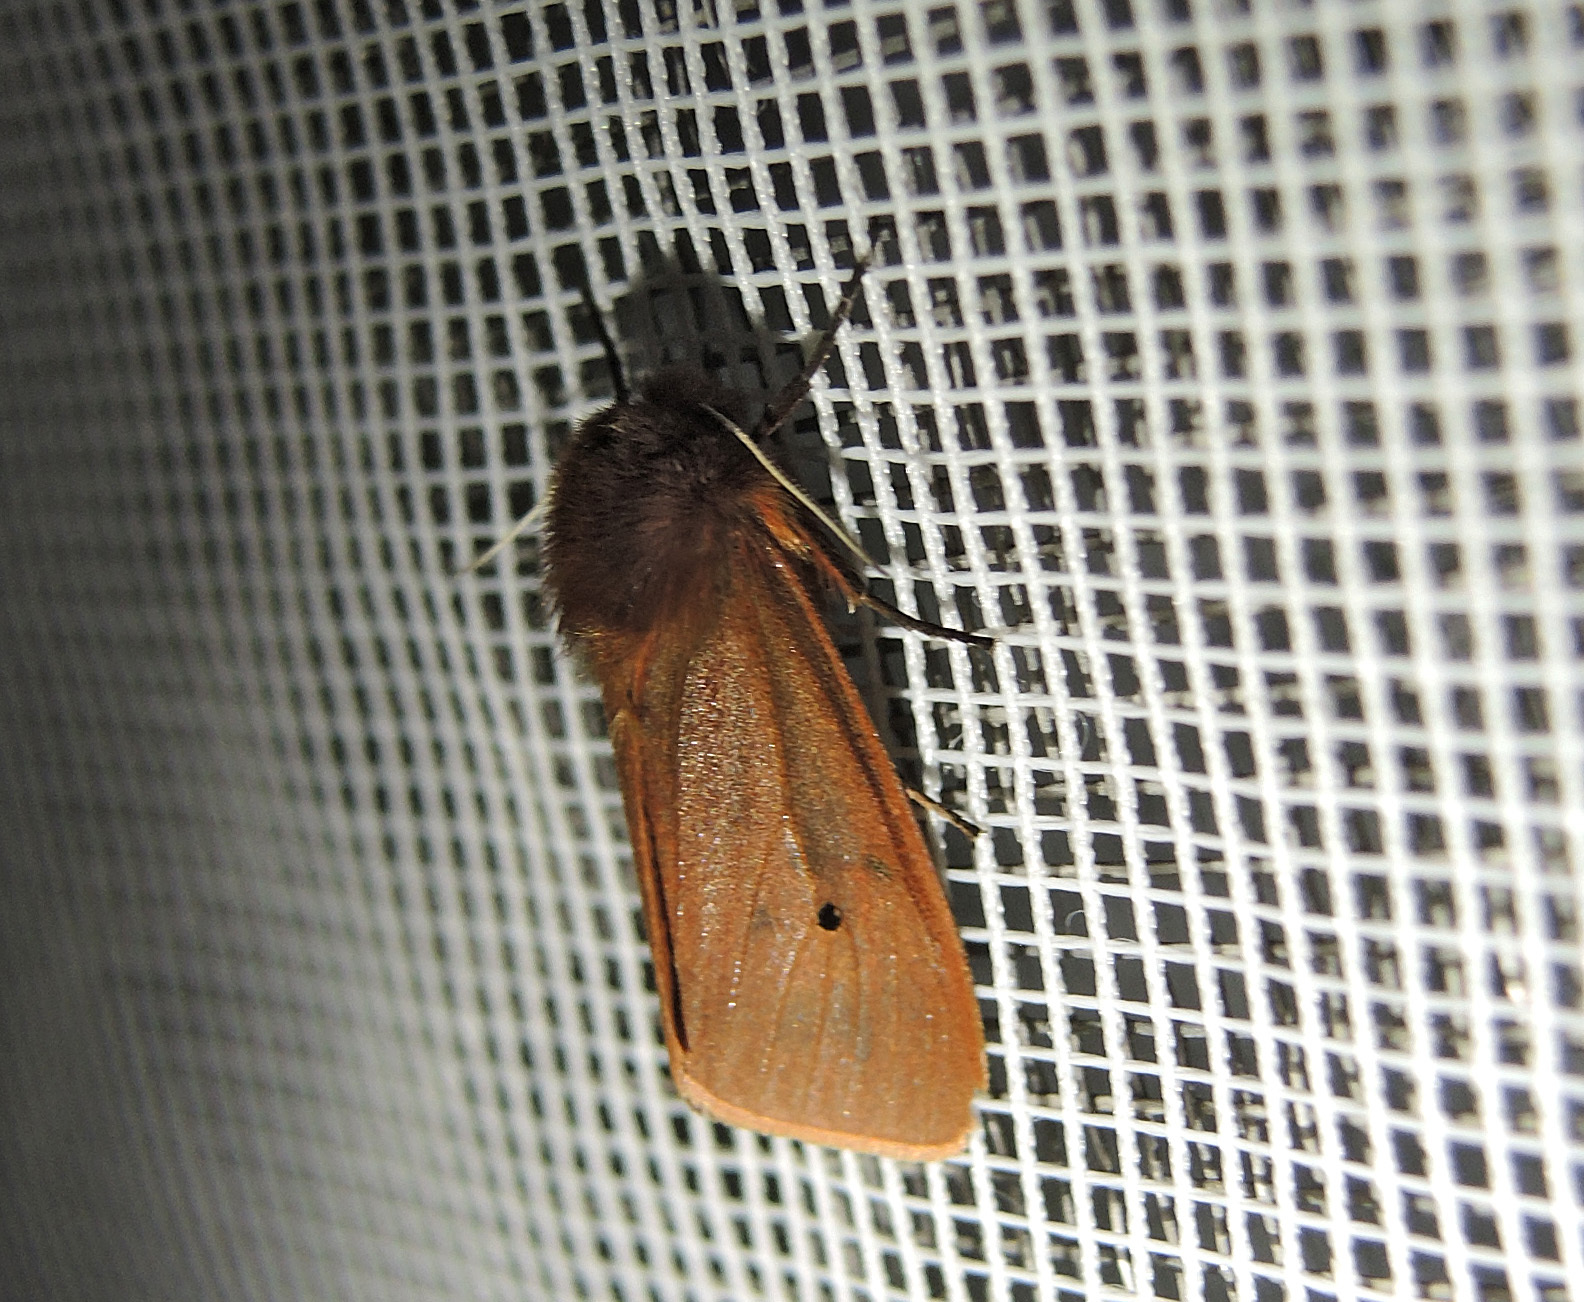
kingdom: Animalia
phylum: Arthropoda
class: Insecta
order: Lepidoptera
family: Erebidae
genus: Phragmatobia
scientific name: Phragmatobia fuliginosa
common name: Ruby tiger
